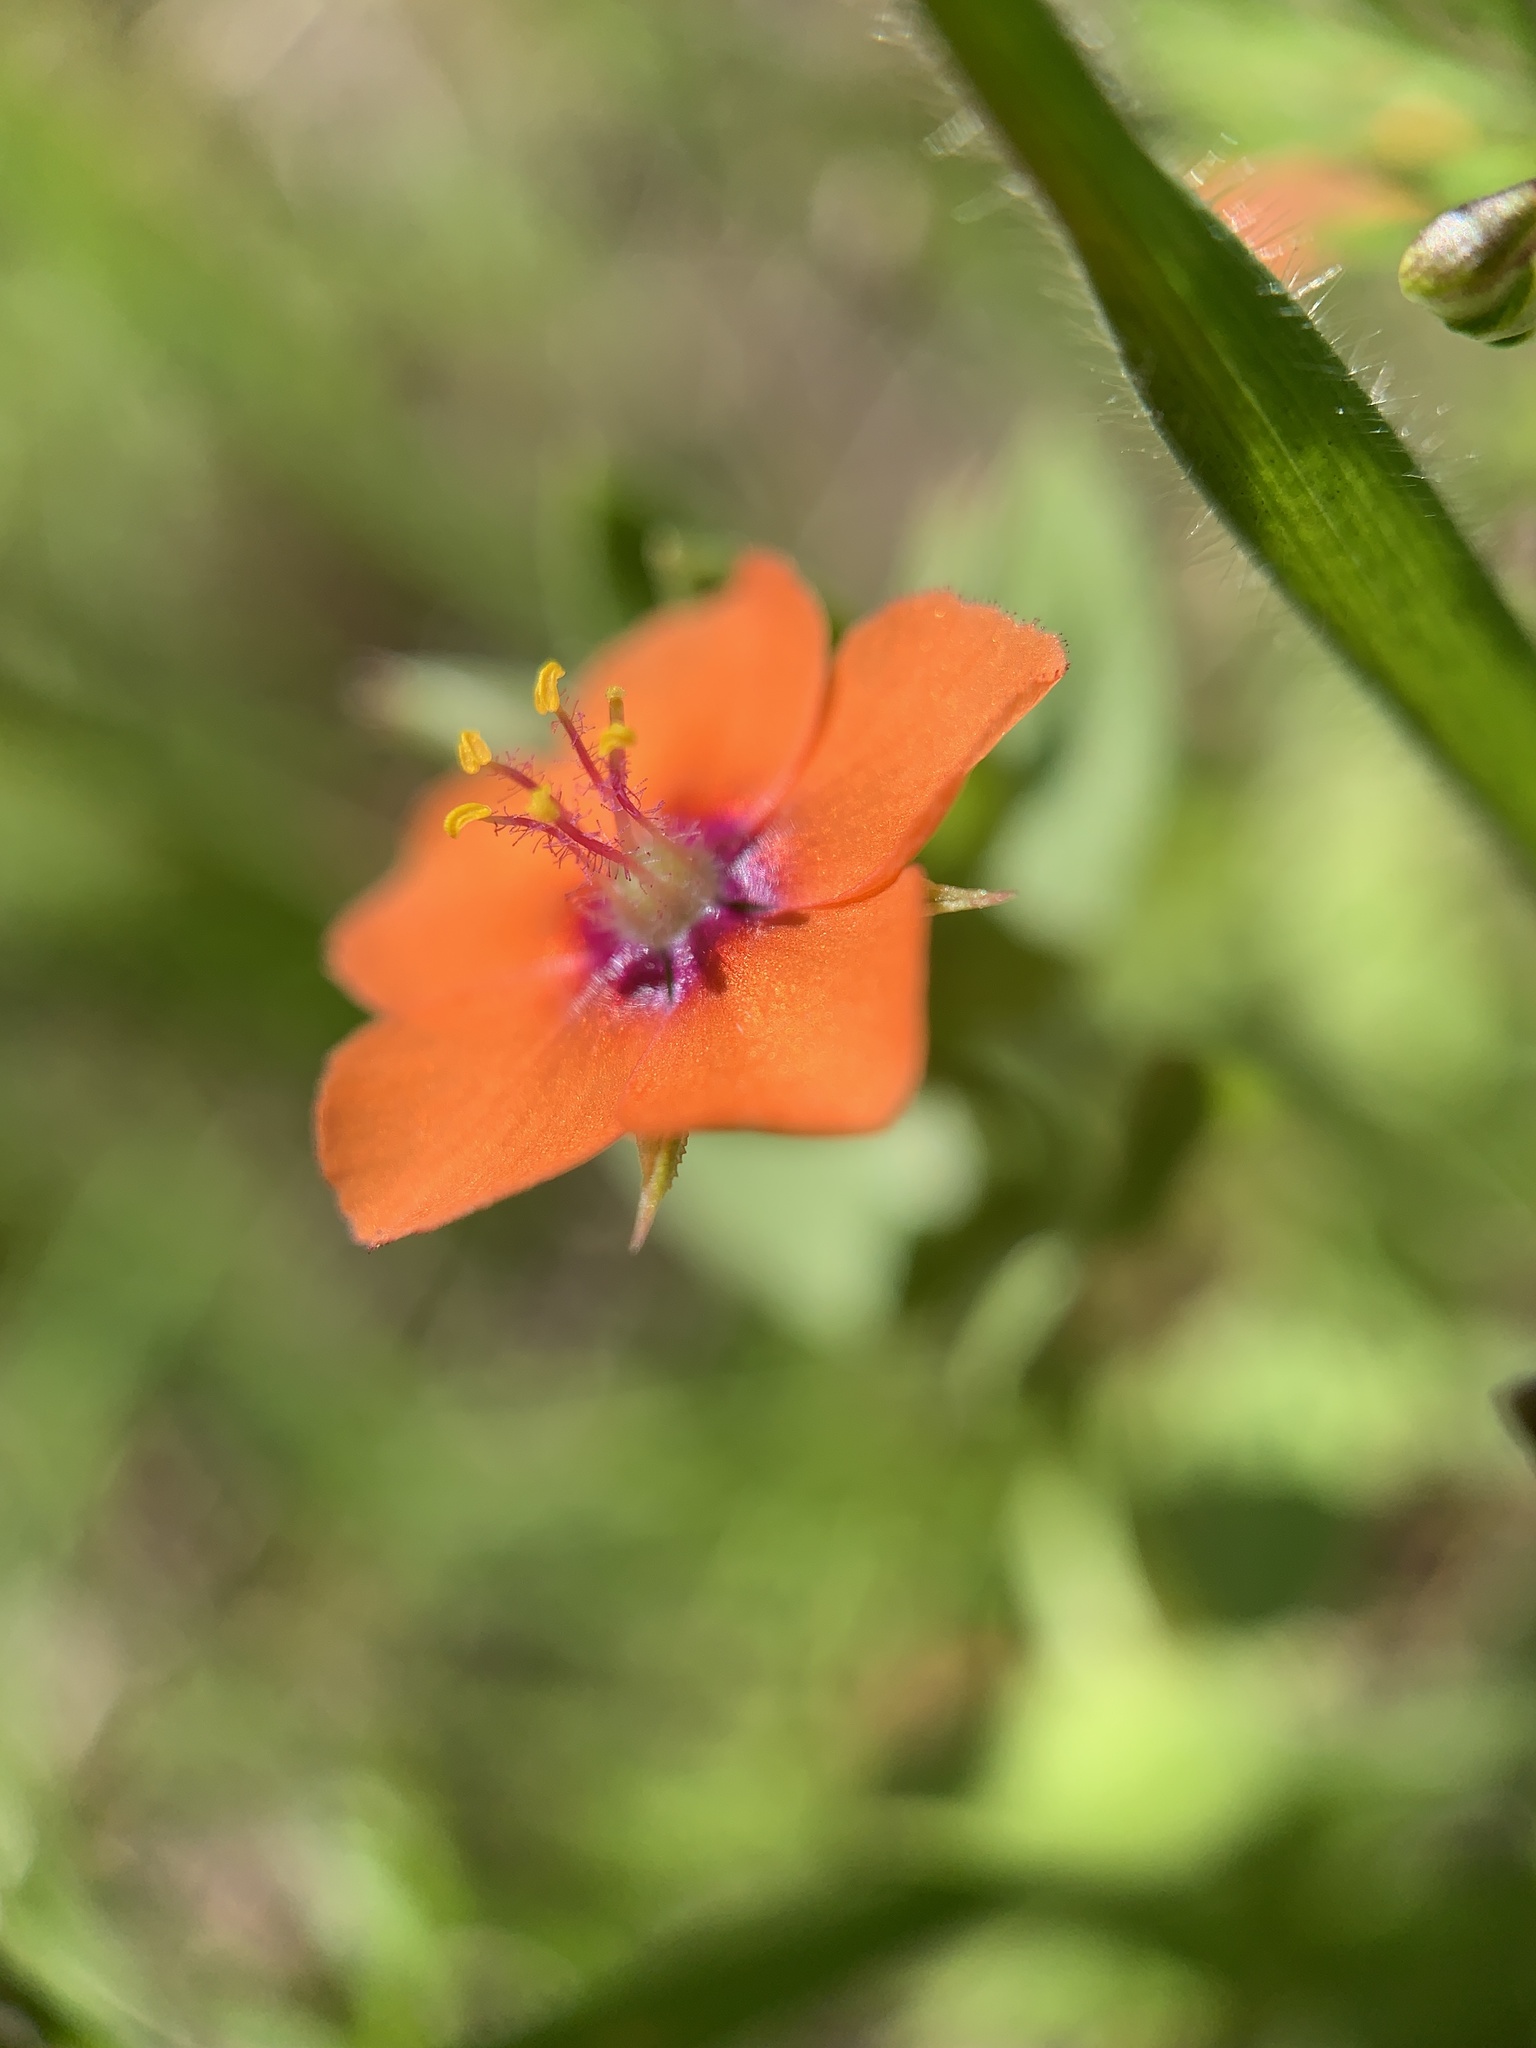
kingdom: Plantae
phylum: Tracheophyta
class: Magnoliopsida
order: Ericales
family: Primulaceae
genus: Lysimachia
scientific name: Lysimachia arvensis
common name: Scarlet pimpernel
